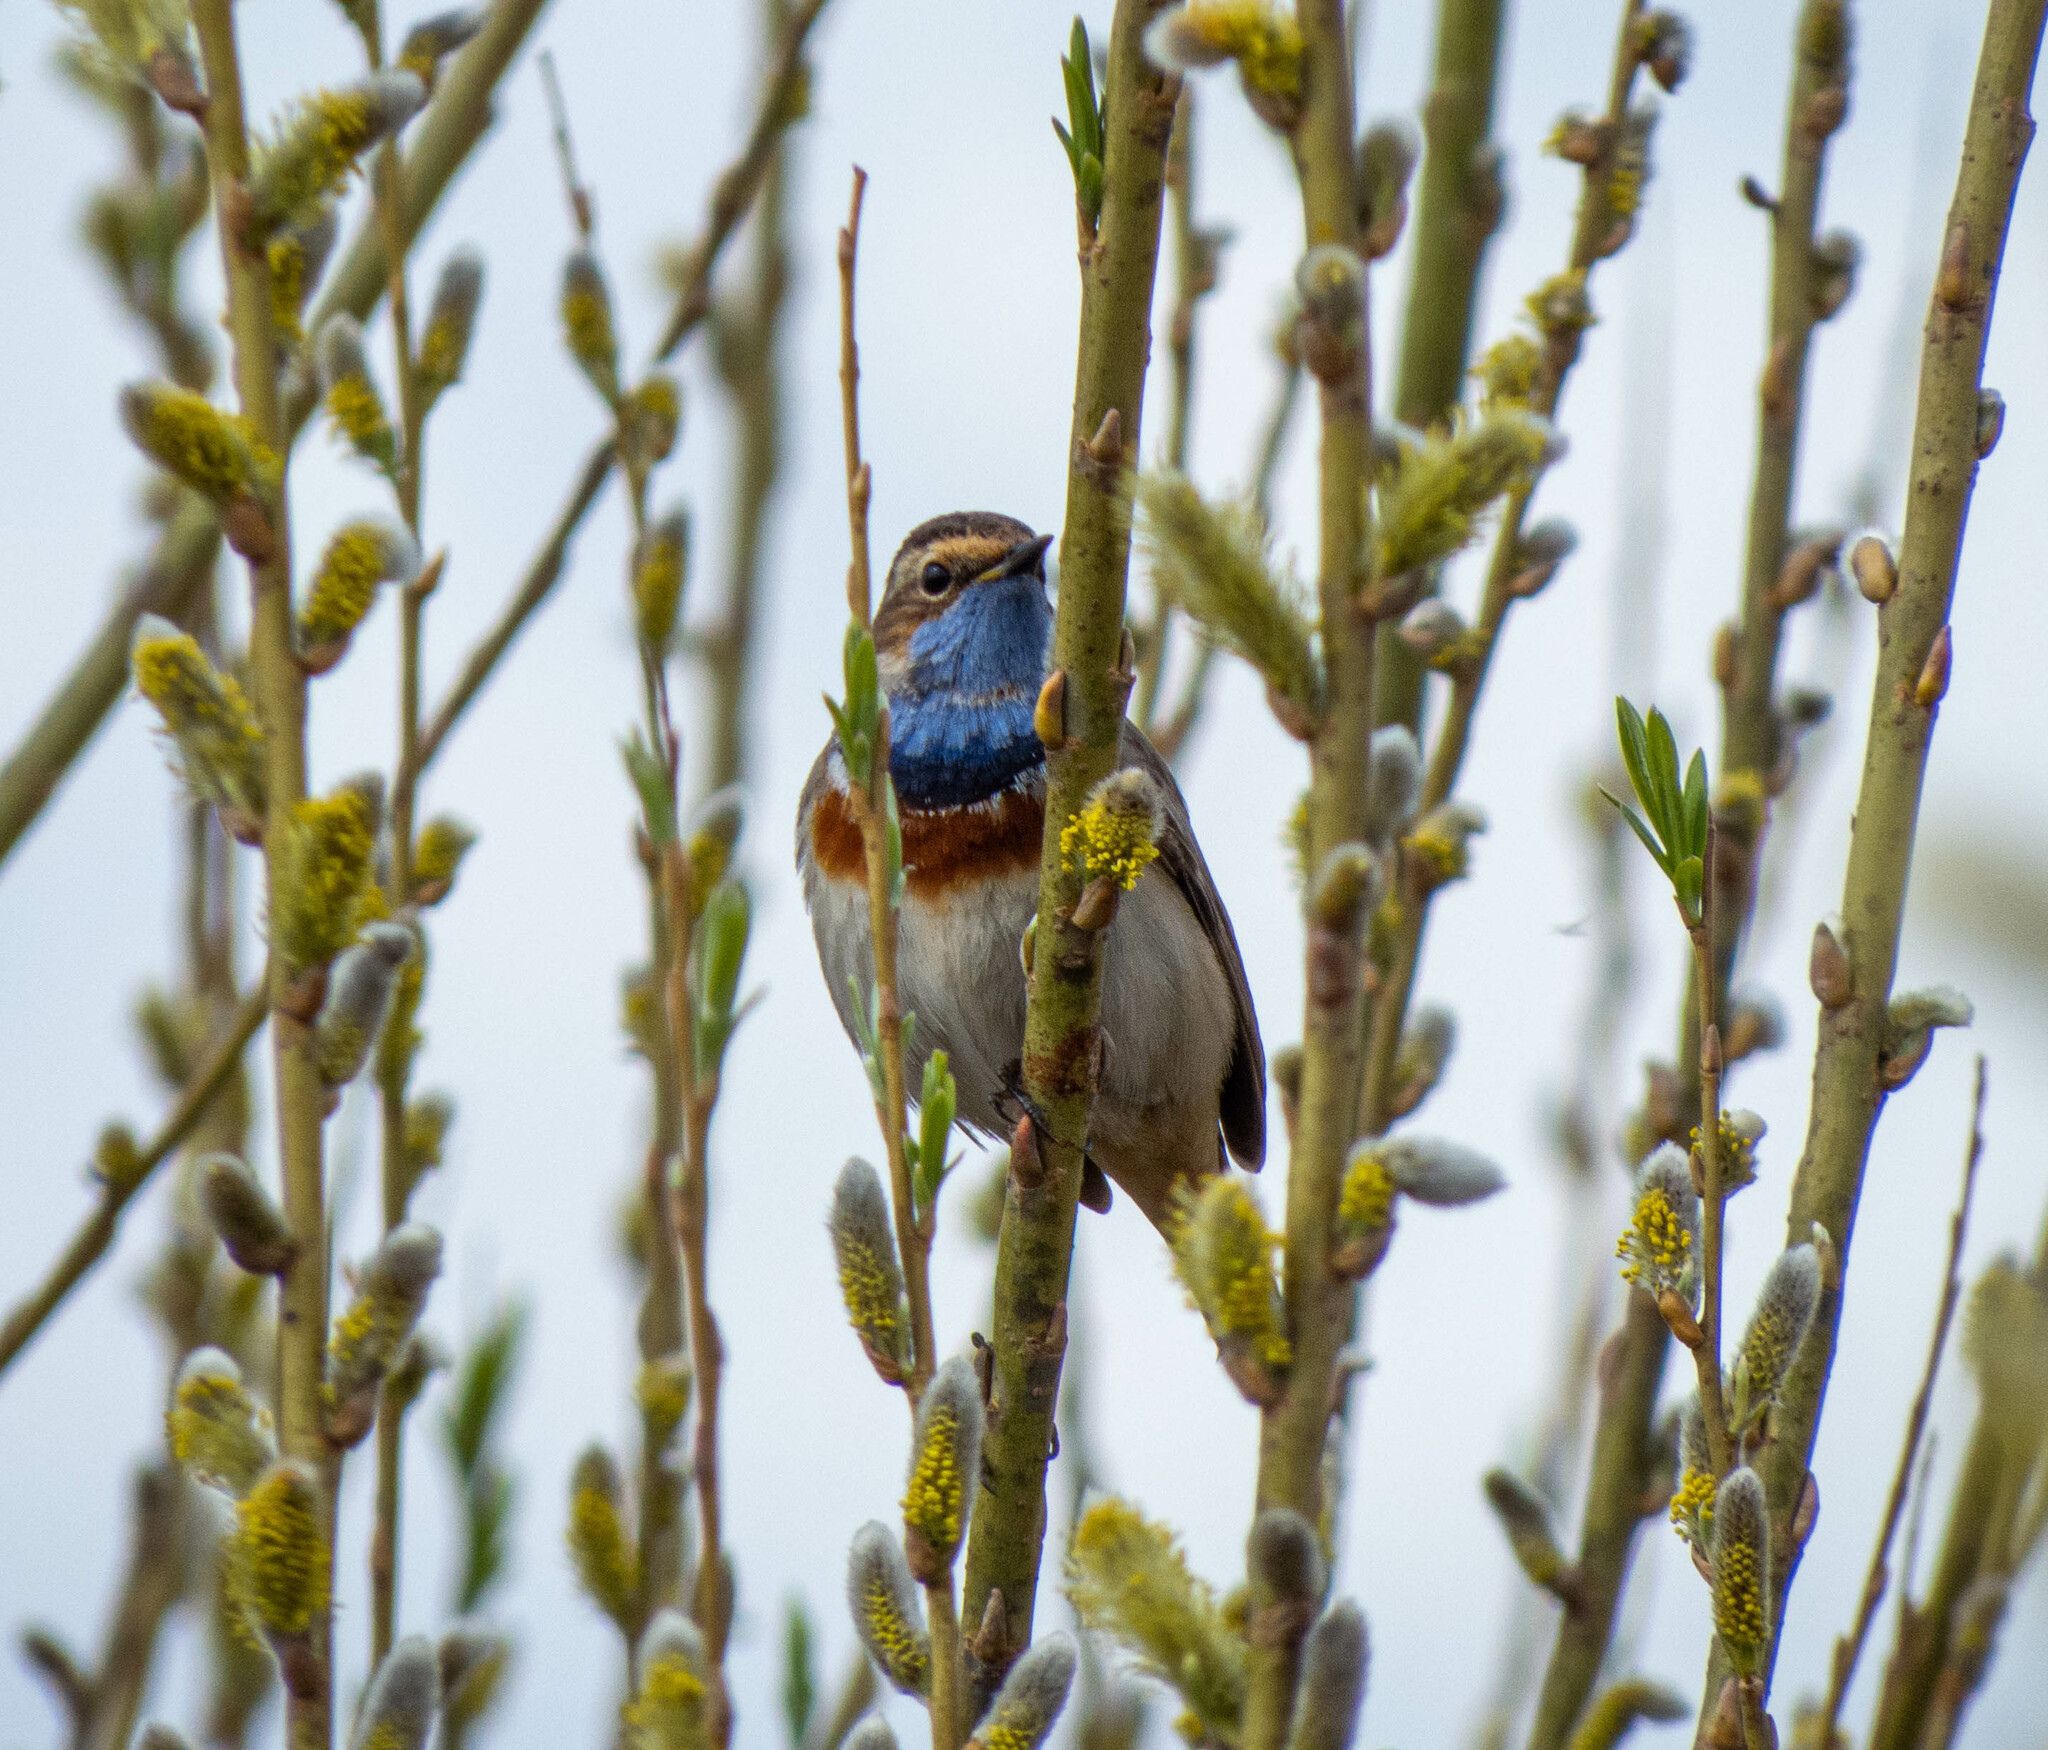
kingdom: Animalia
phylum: Chordata
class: Aves
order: Passeriformes
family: Muscicapidae
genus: Luscinia
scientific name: Luscinia svecica
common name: Bluethroat
